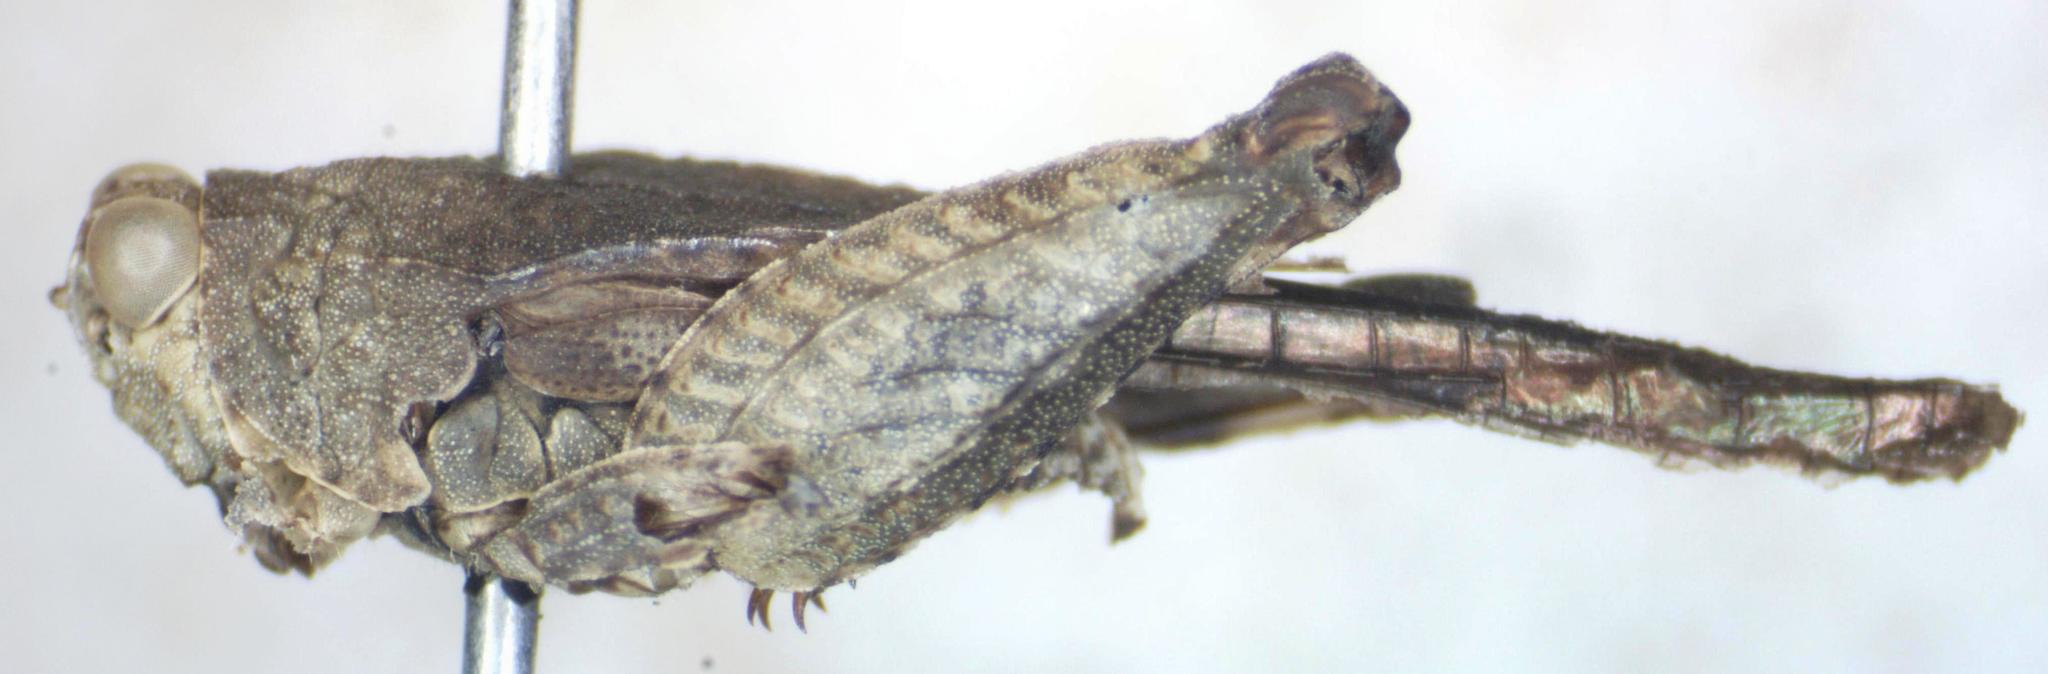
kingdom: Animalia
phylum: Arthropoda
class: Insecta
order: Orthoptera
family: Tetrigidae
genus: Clypeotettix
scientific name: Clypeotettix schochii
